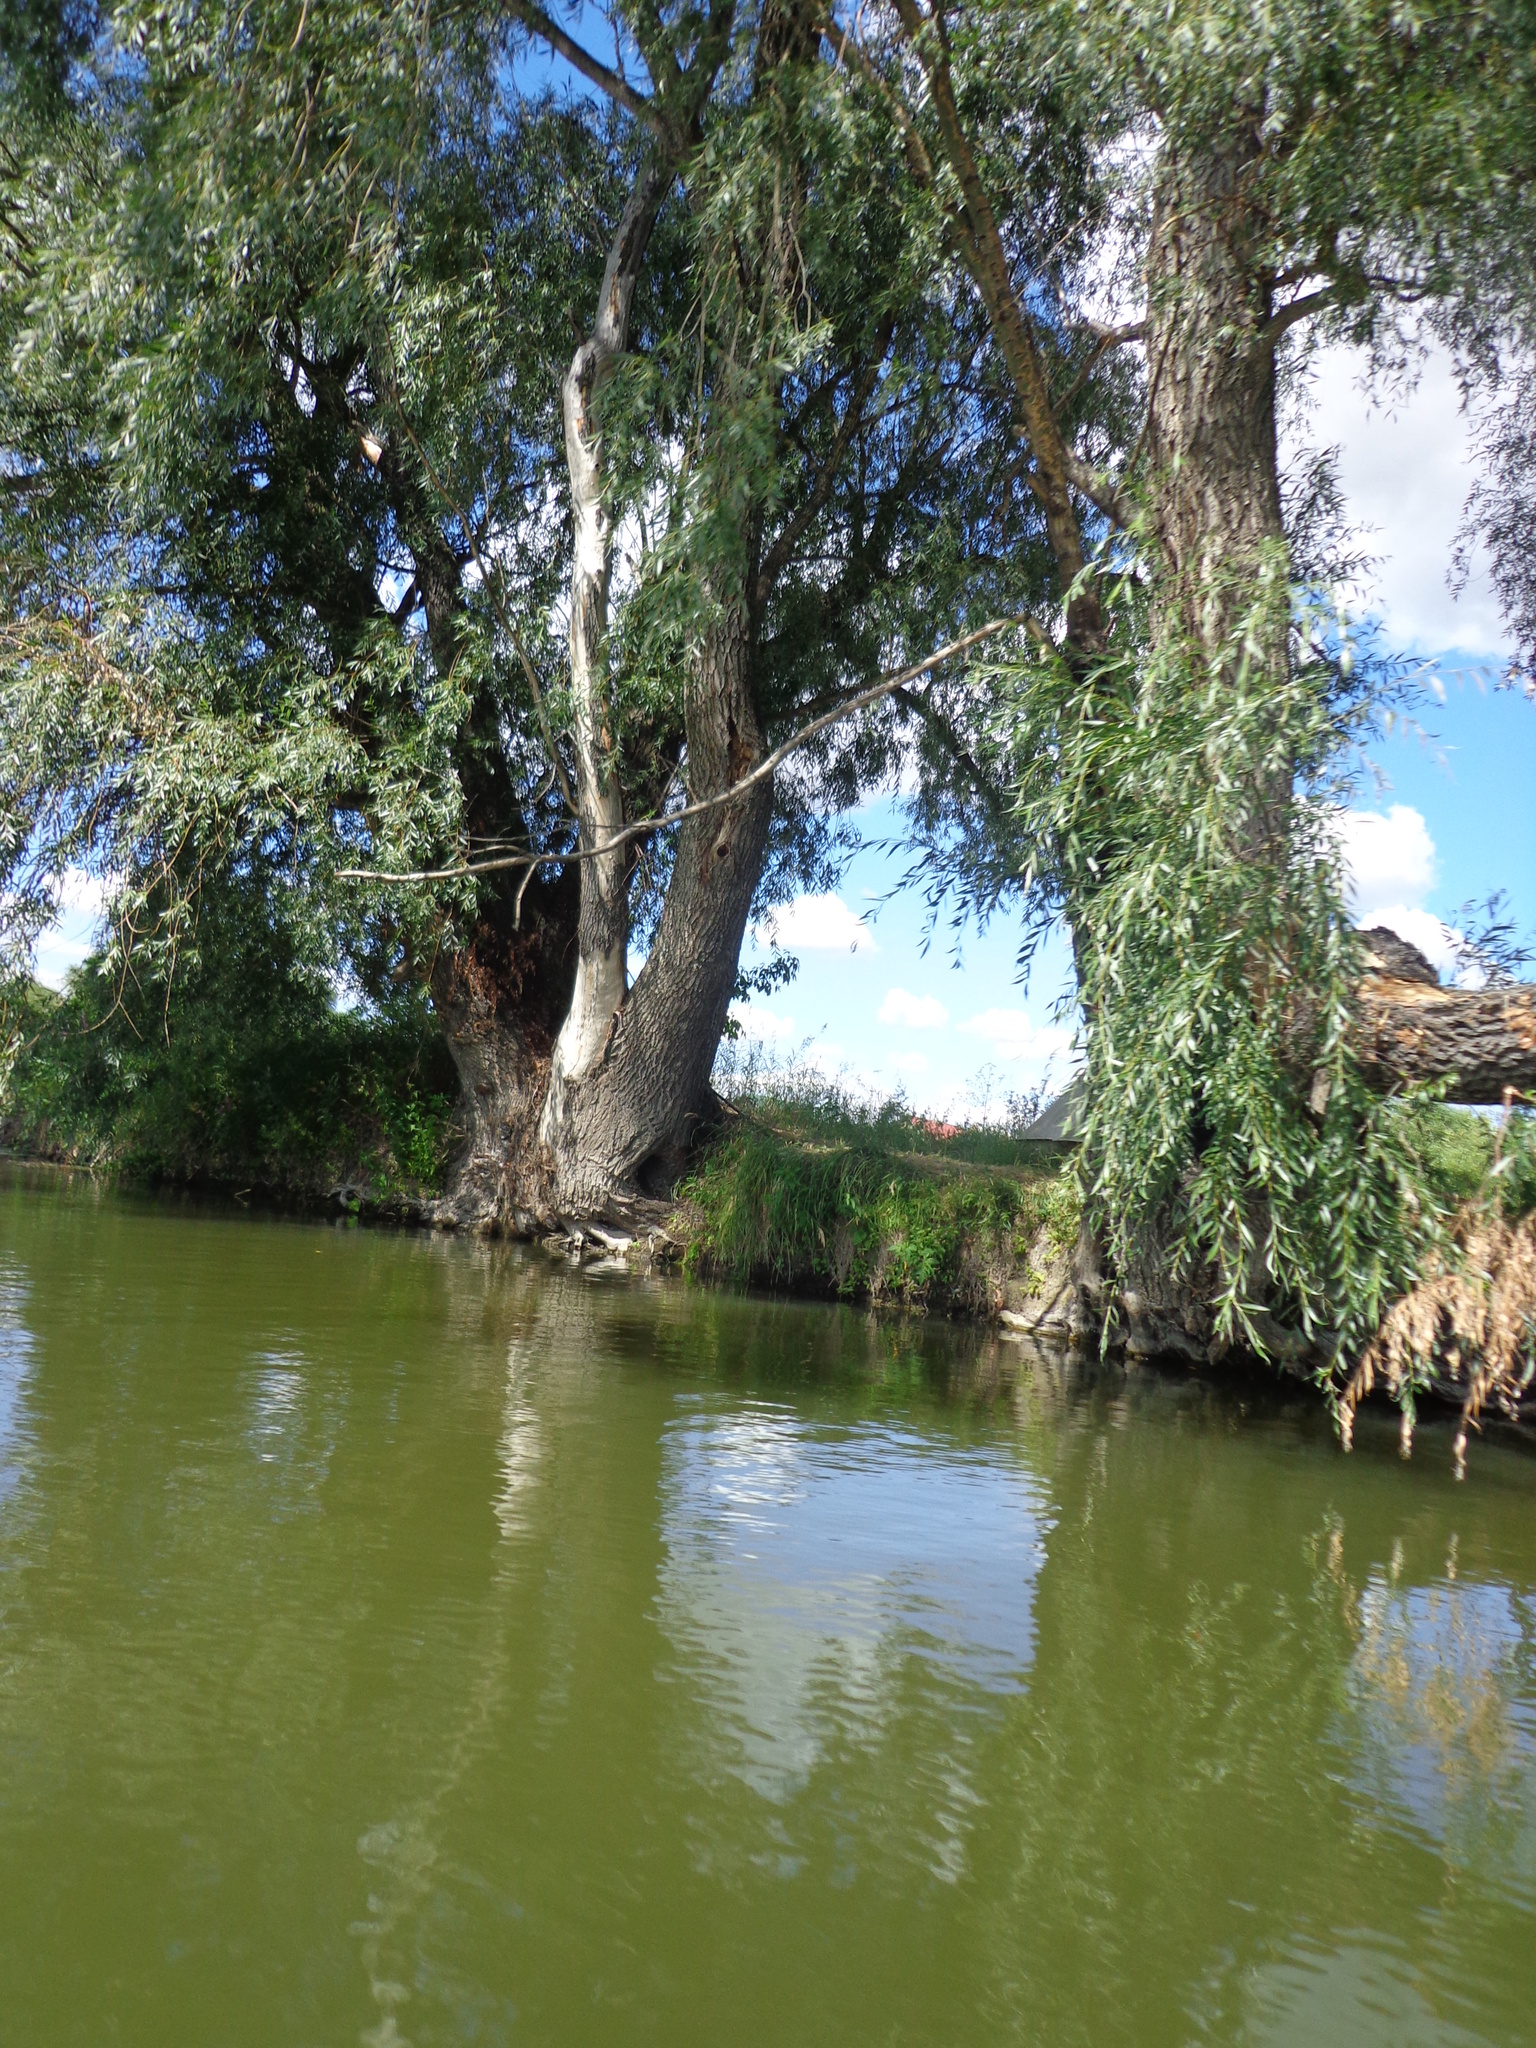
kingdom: Plantae
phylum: Tracheophyta
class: Magnoliopsida
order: Malpighiales
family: Salicaceae
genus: Salix
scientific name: Salix alba
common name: White willow
